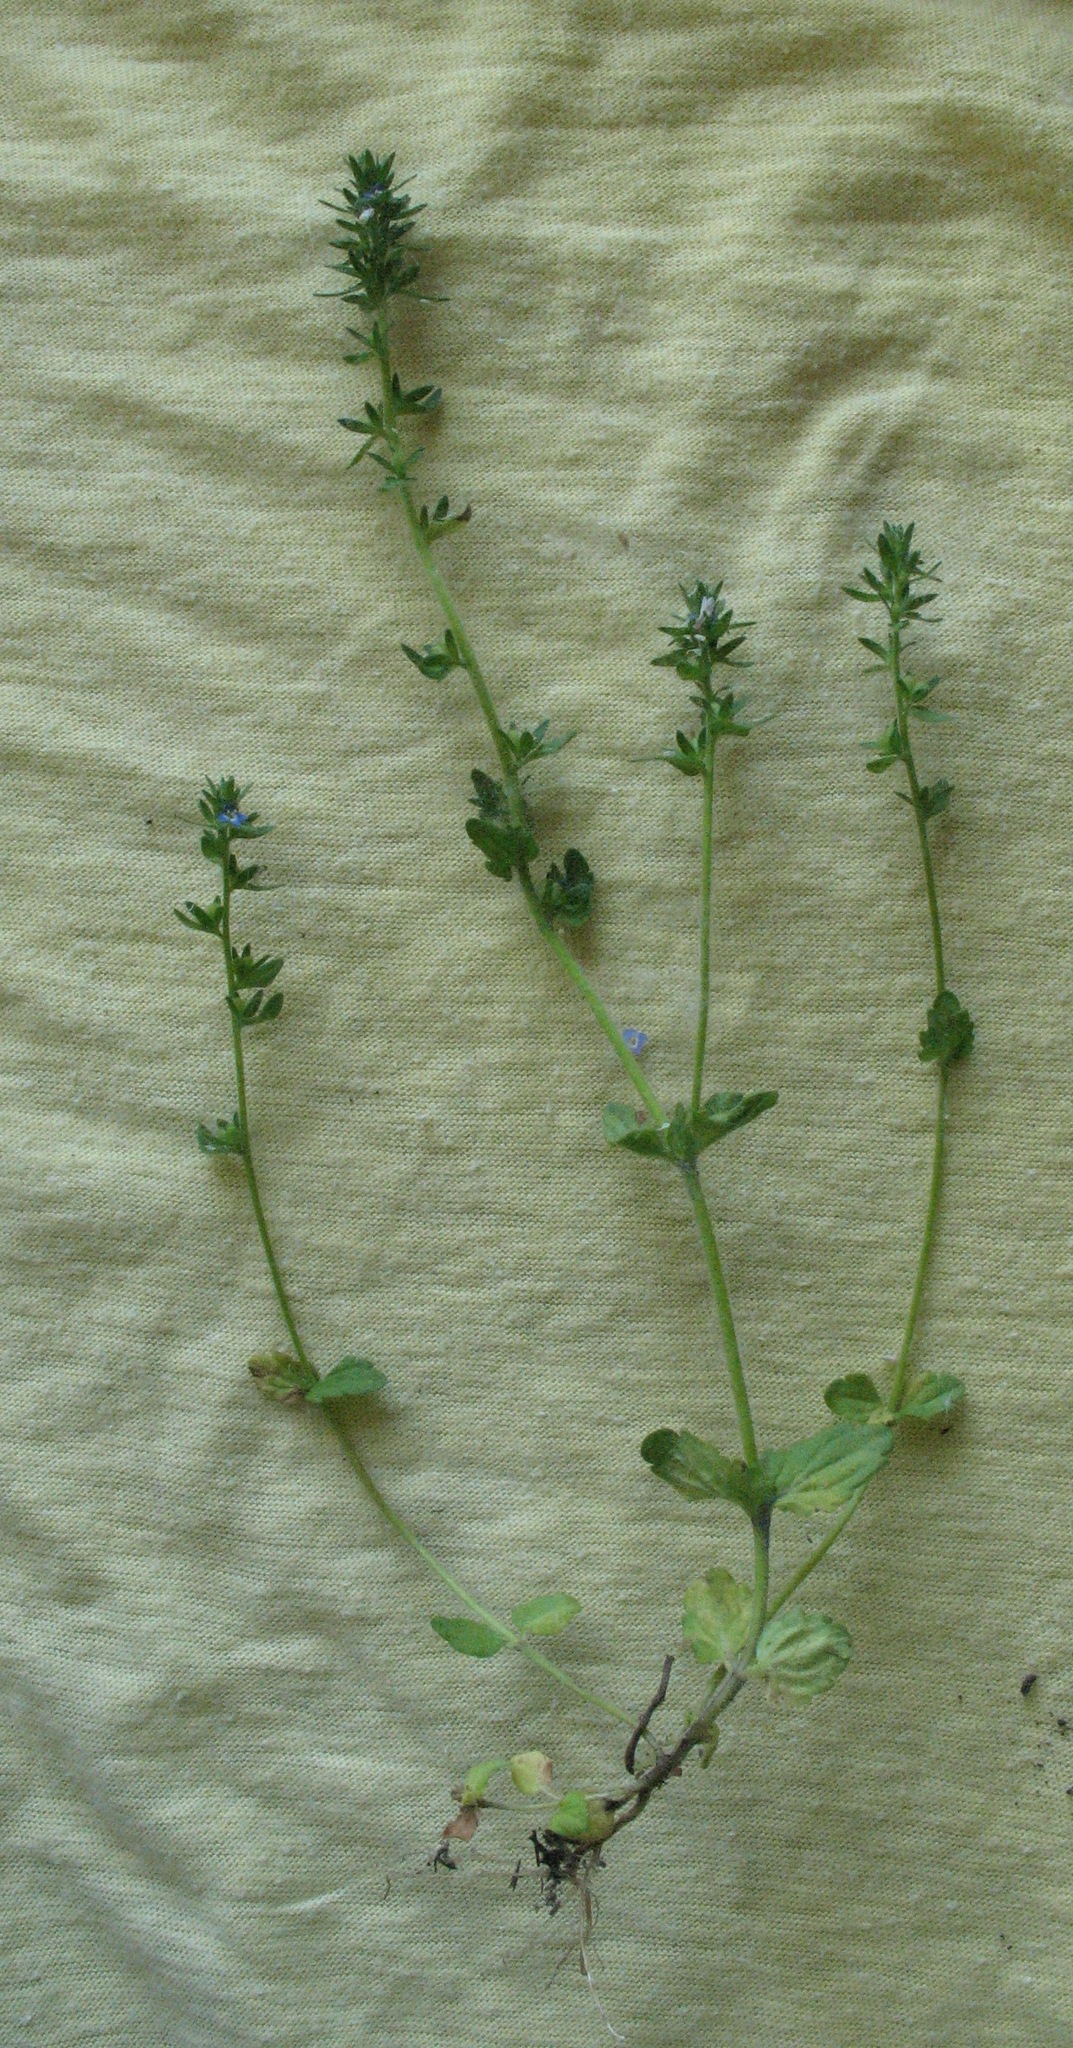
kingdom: Plantae
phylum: Tracheophyta
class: Magnoliopsida
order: Lamiales
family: Plantaginaceae
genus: Veronica
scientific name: Veronica arvensis
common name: Corn speedwell
